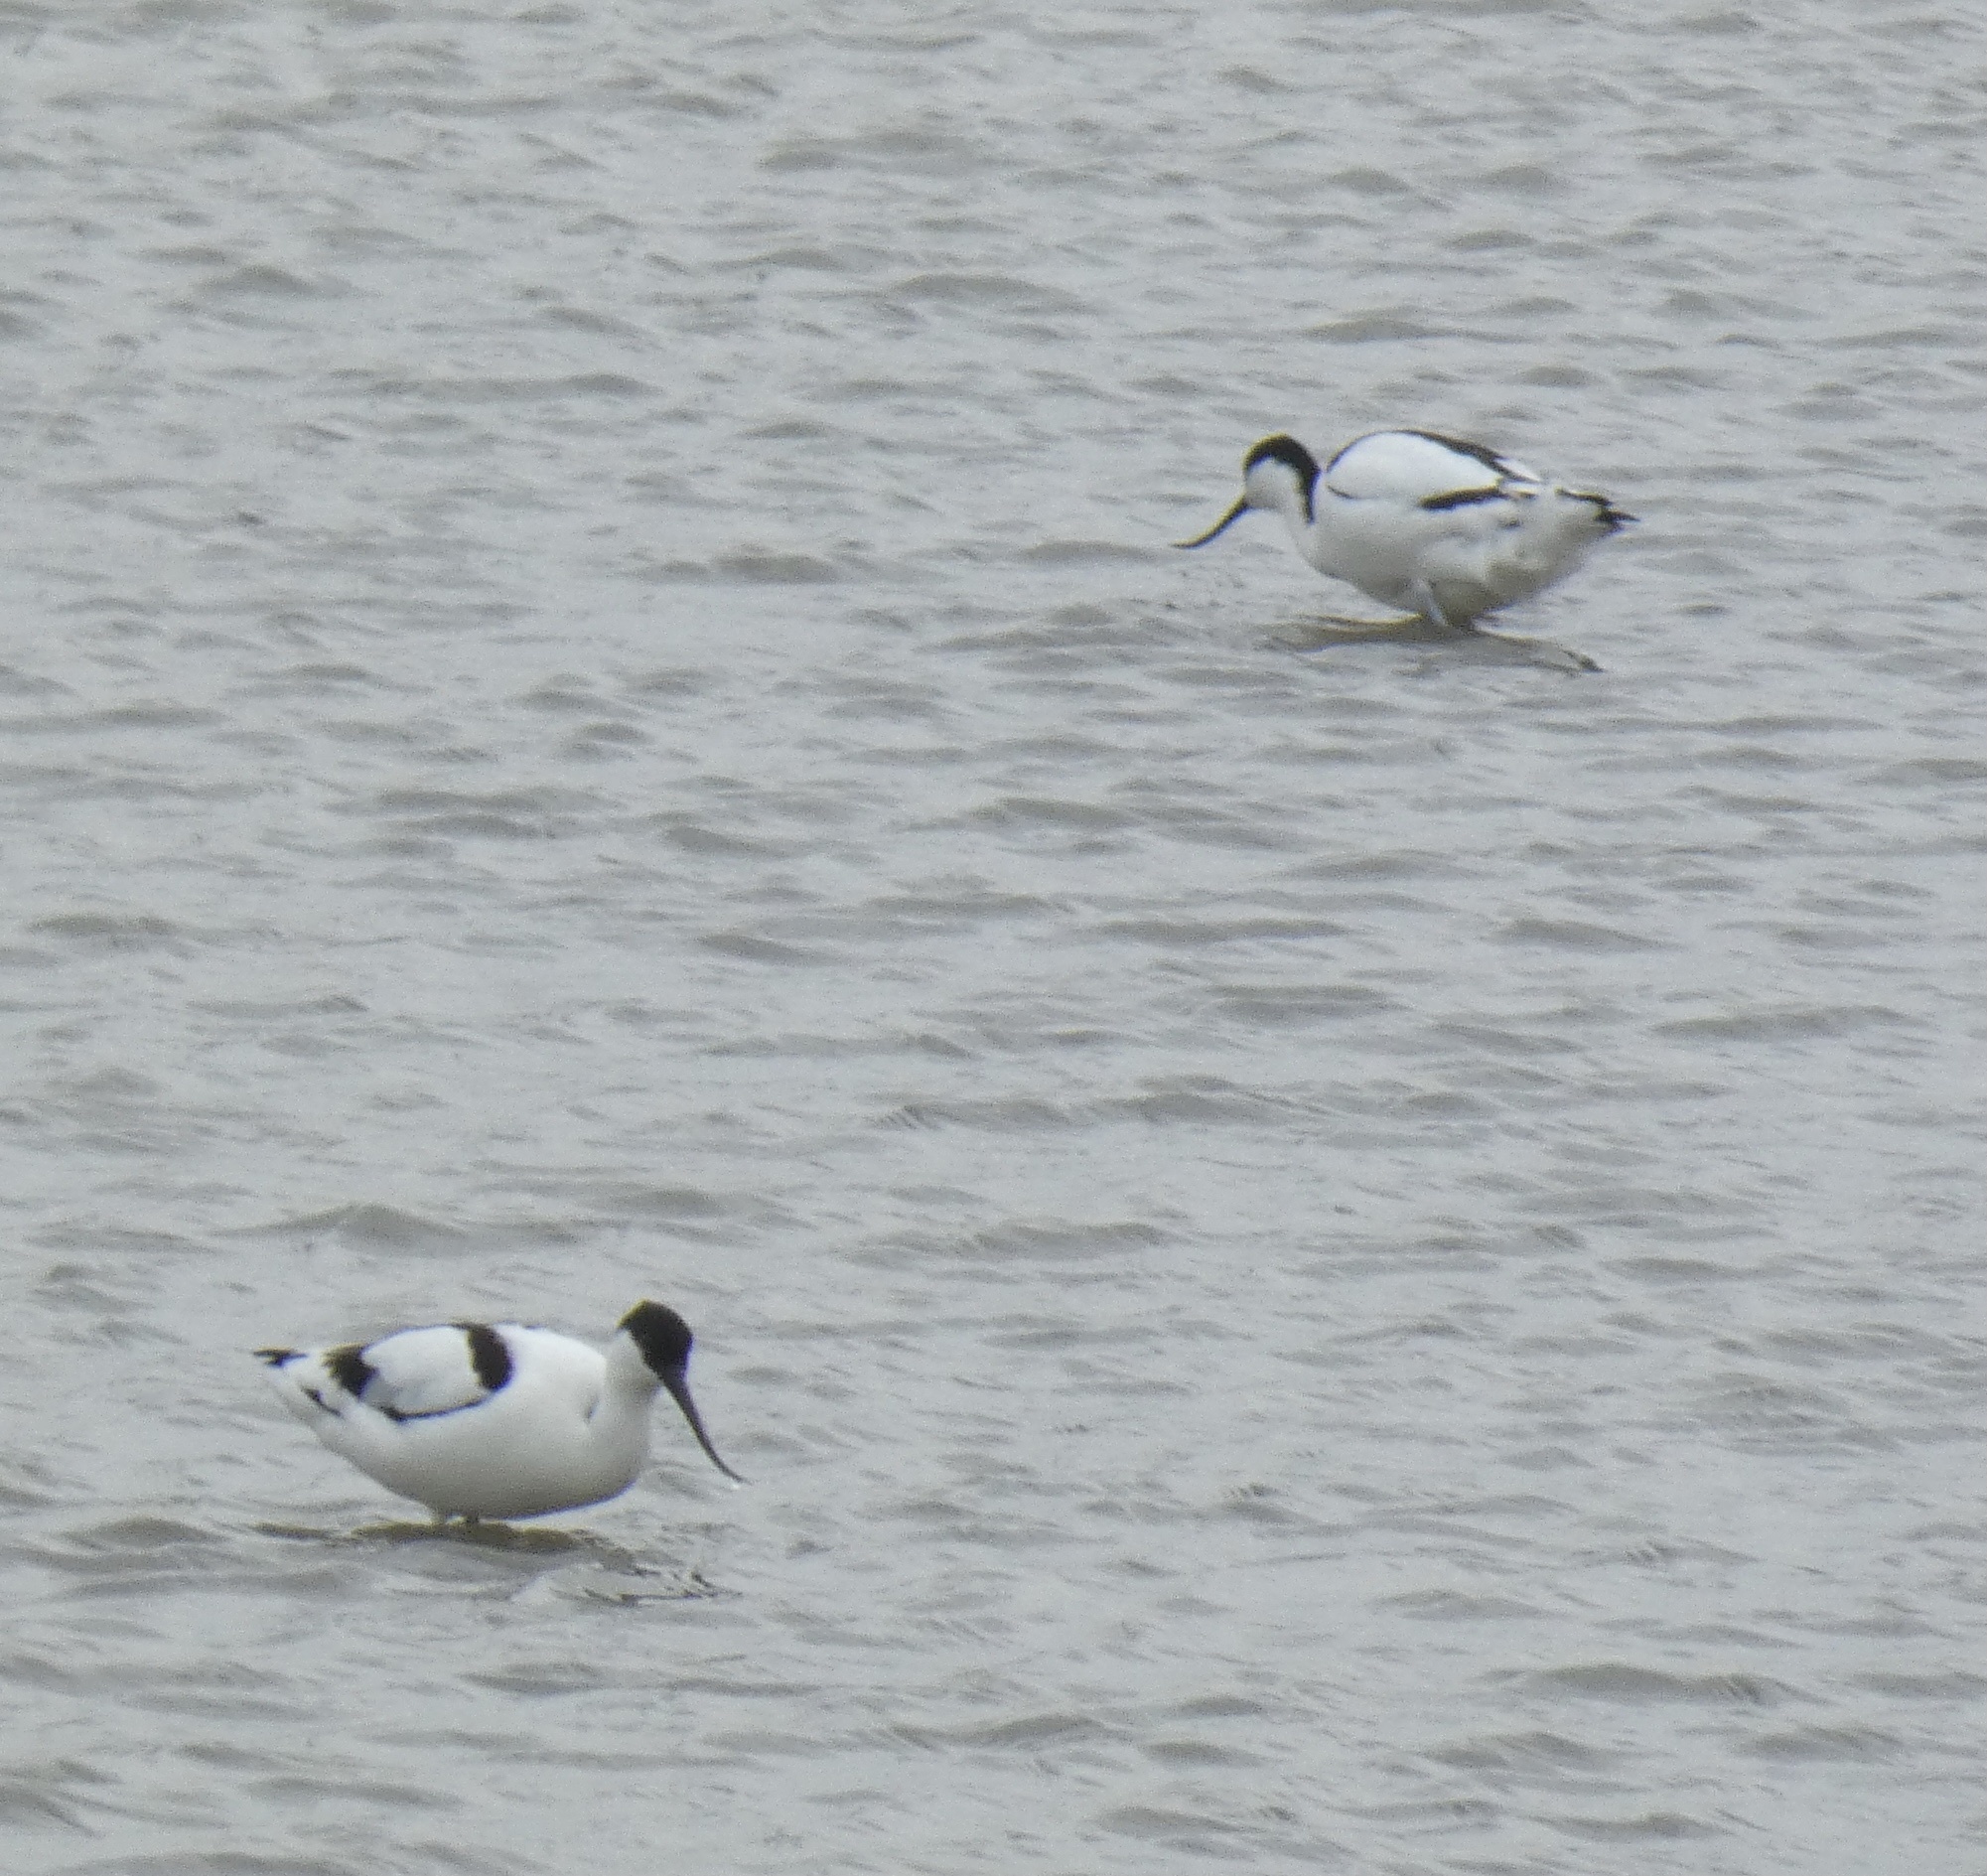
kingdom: Animalia
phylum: Chordata
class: Aves
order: Charadriiformes
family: Recurvirostridae
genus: Recurvirostra
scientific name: Recurvirostra avosetta
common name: Pied avocet
